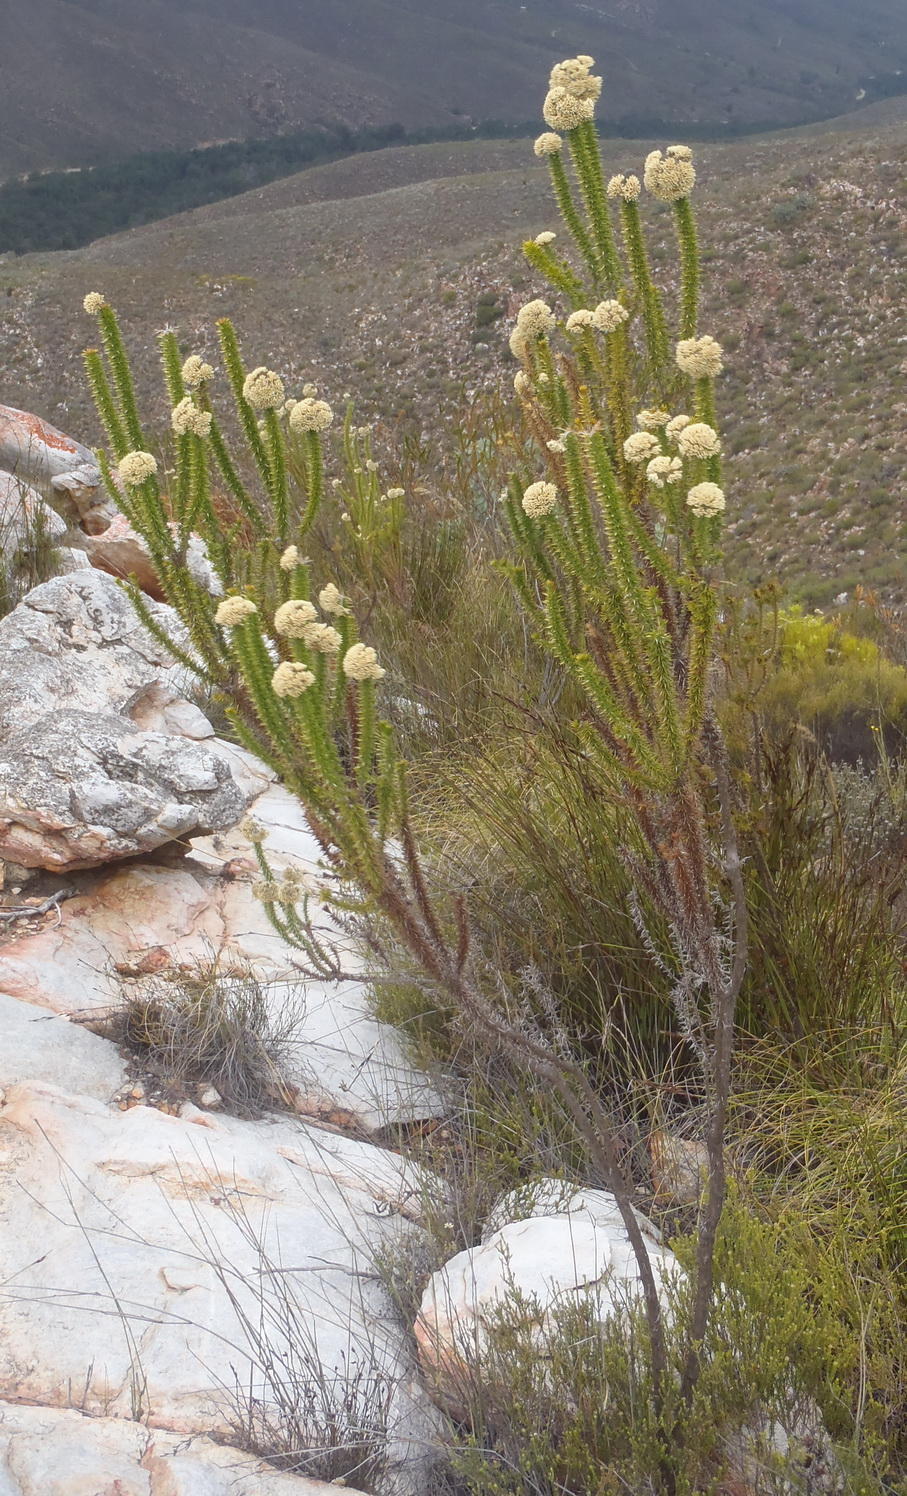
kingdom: Plantae
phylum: Tracheophyta
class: Magnoliopsida
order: Asterales
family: Asteraceae
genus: Metalasia
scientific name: Metalasia acuta
